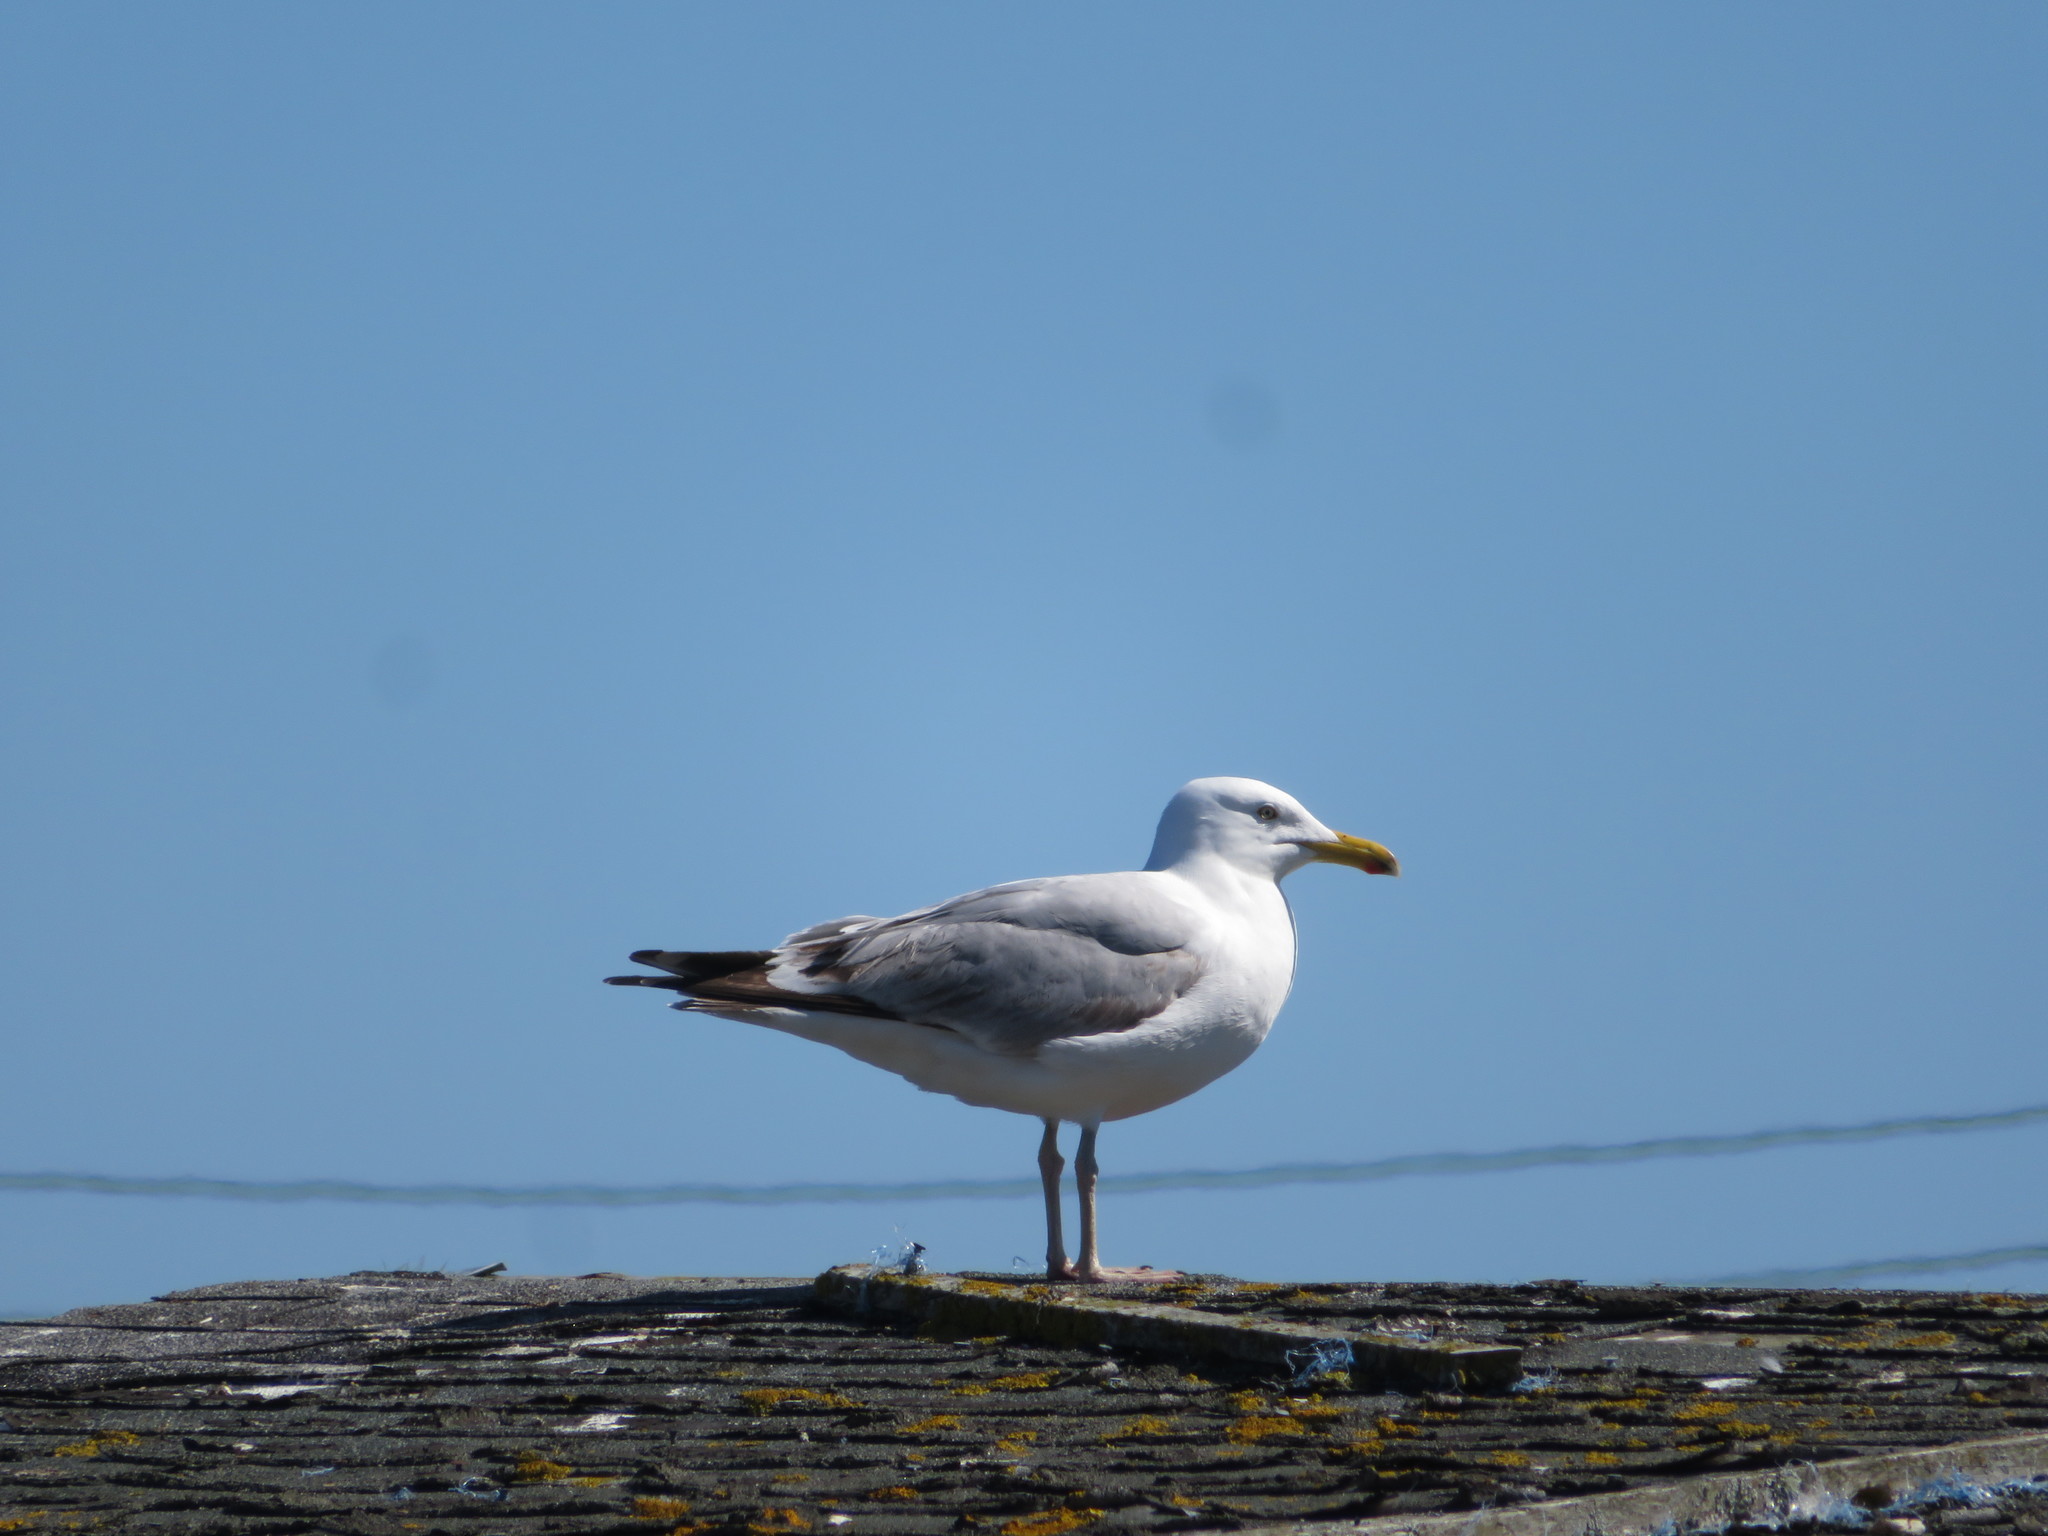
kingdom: Animalia
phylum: Chordata
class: Aves
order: Charadriiformes
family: Laridae
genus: Larus
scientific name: Larus argentatus
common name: Herring gull
